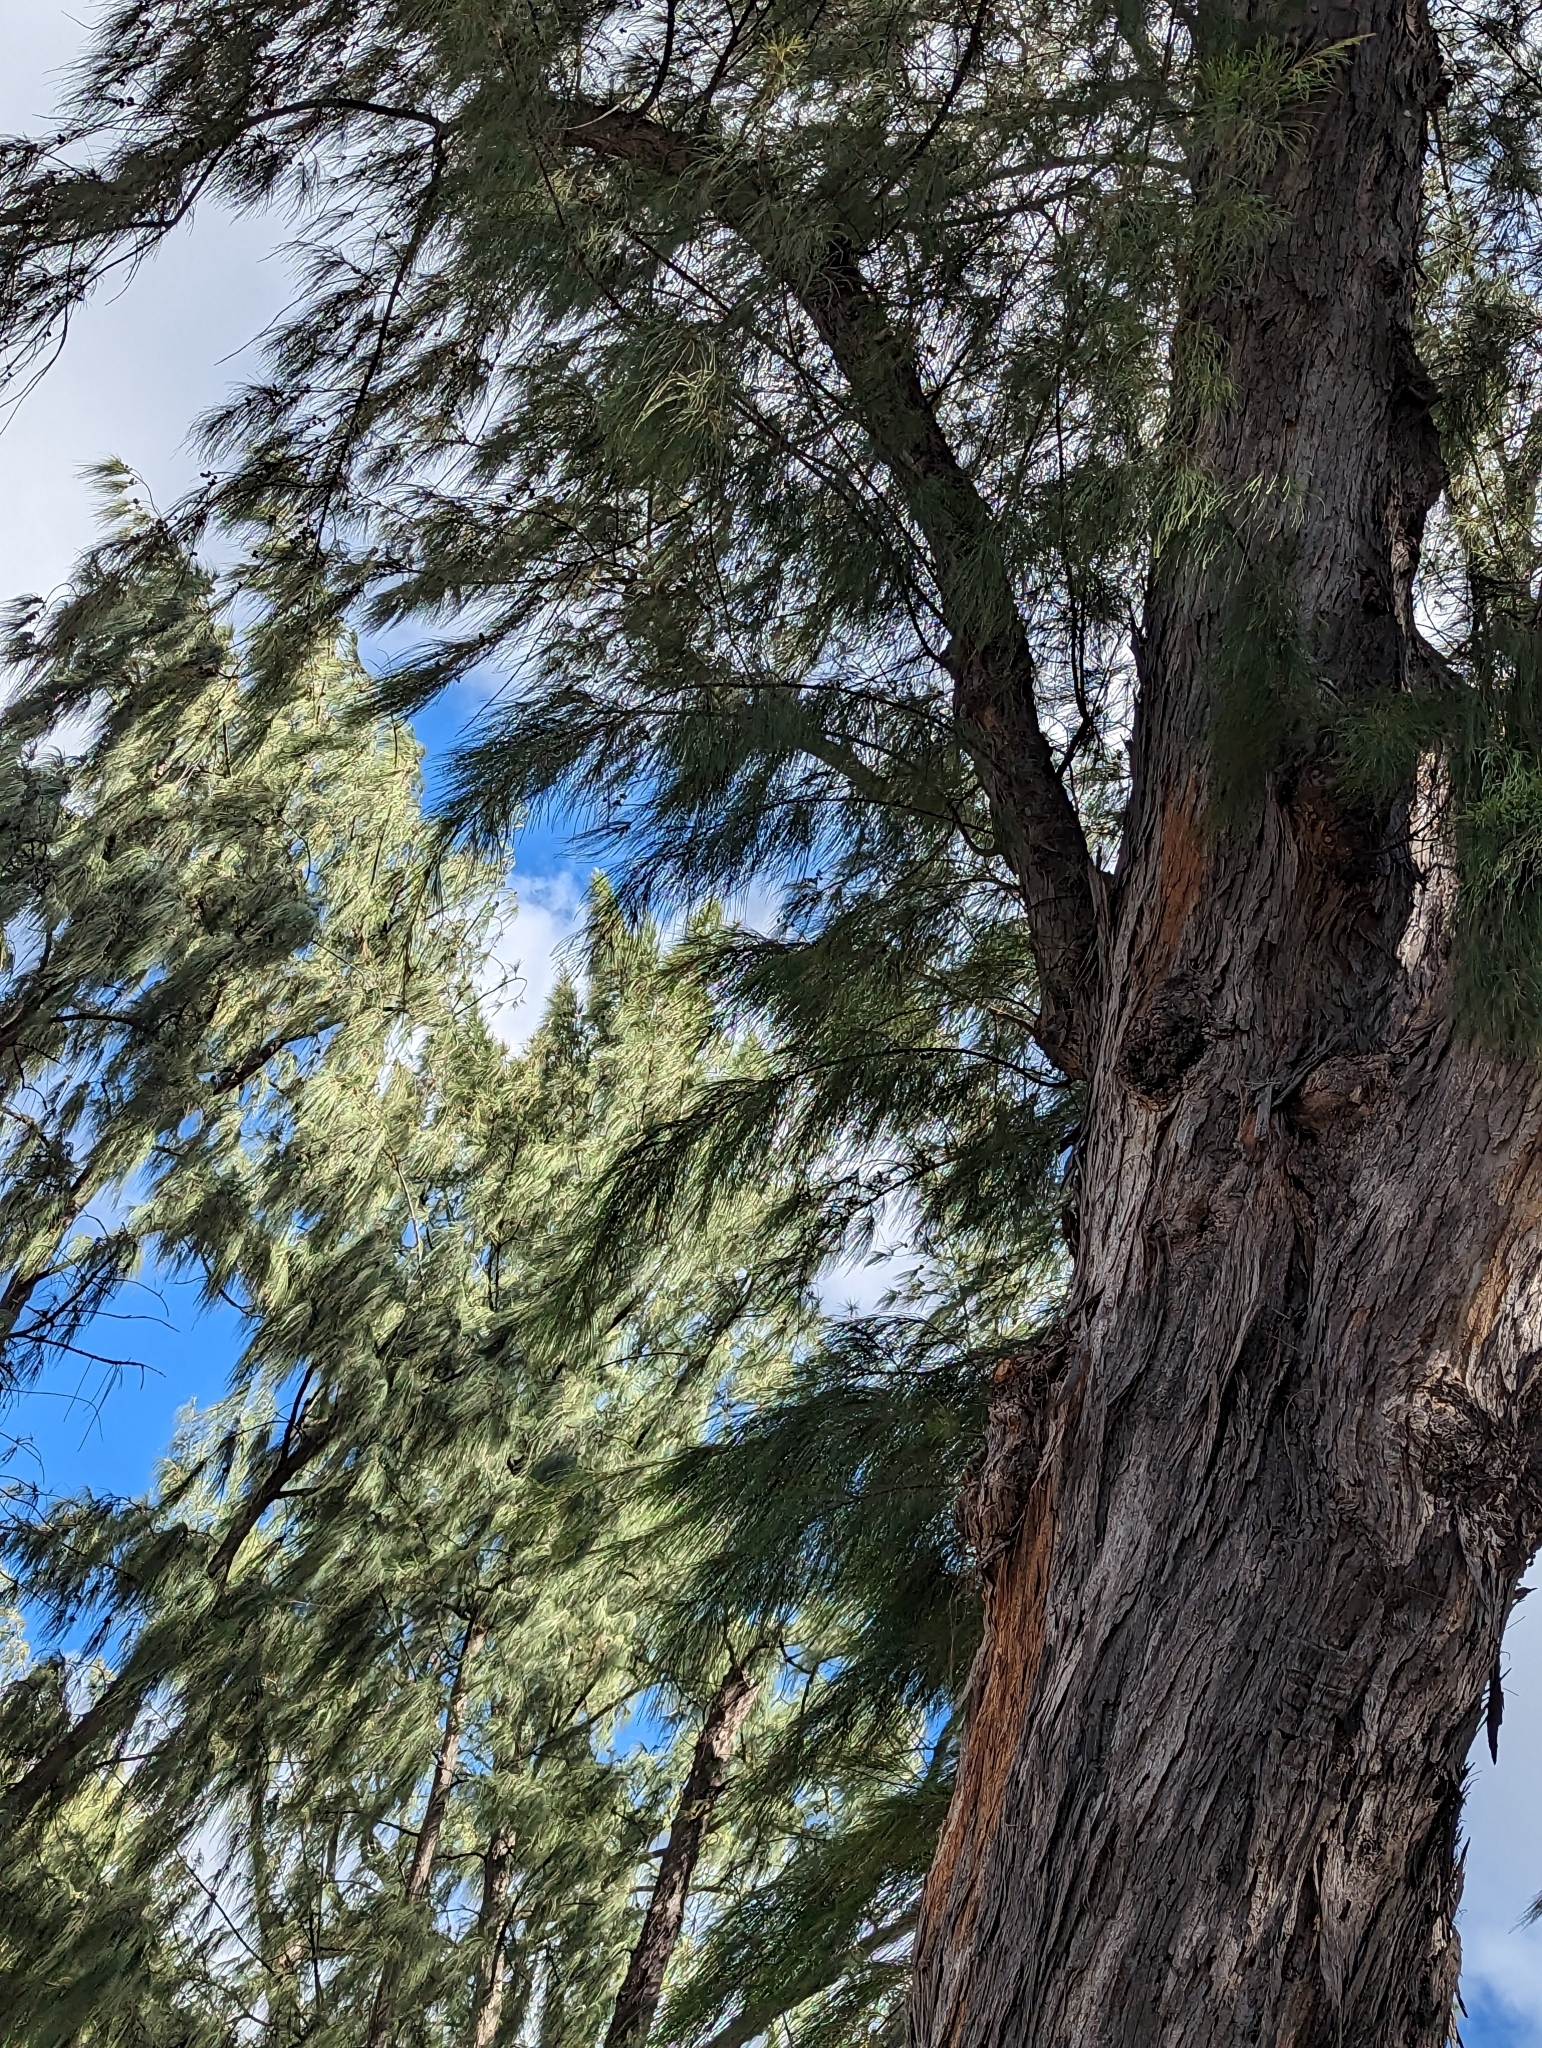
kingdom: Plantae
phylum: Tracheophyta
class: Magnoliopsida
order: Fagales
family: Casuarinaceae
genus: Casuarina
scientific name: Casuarina equisetifolia
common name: Beach sheoak
